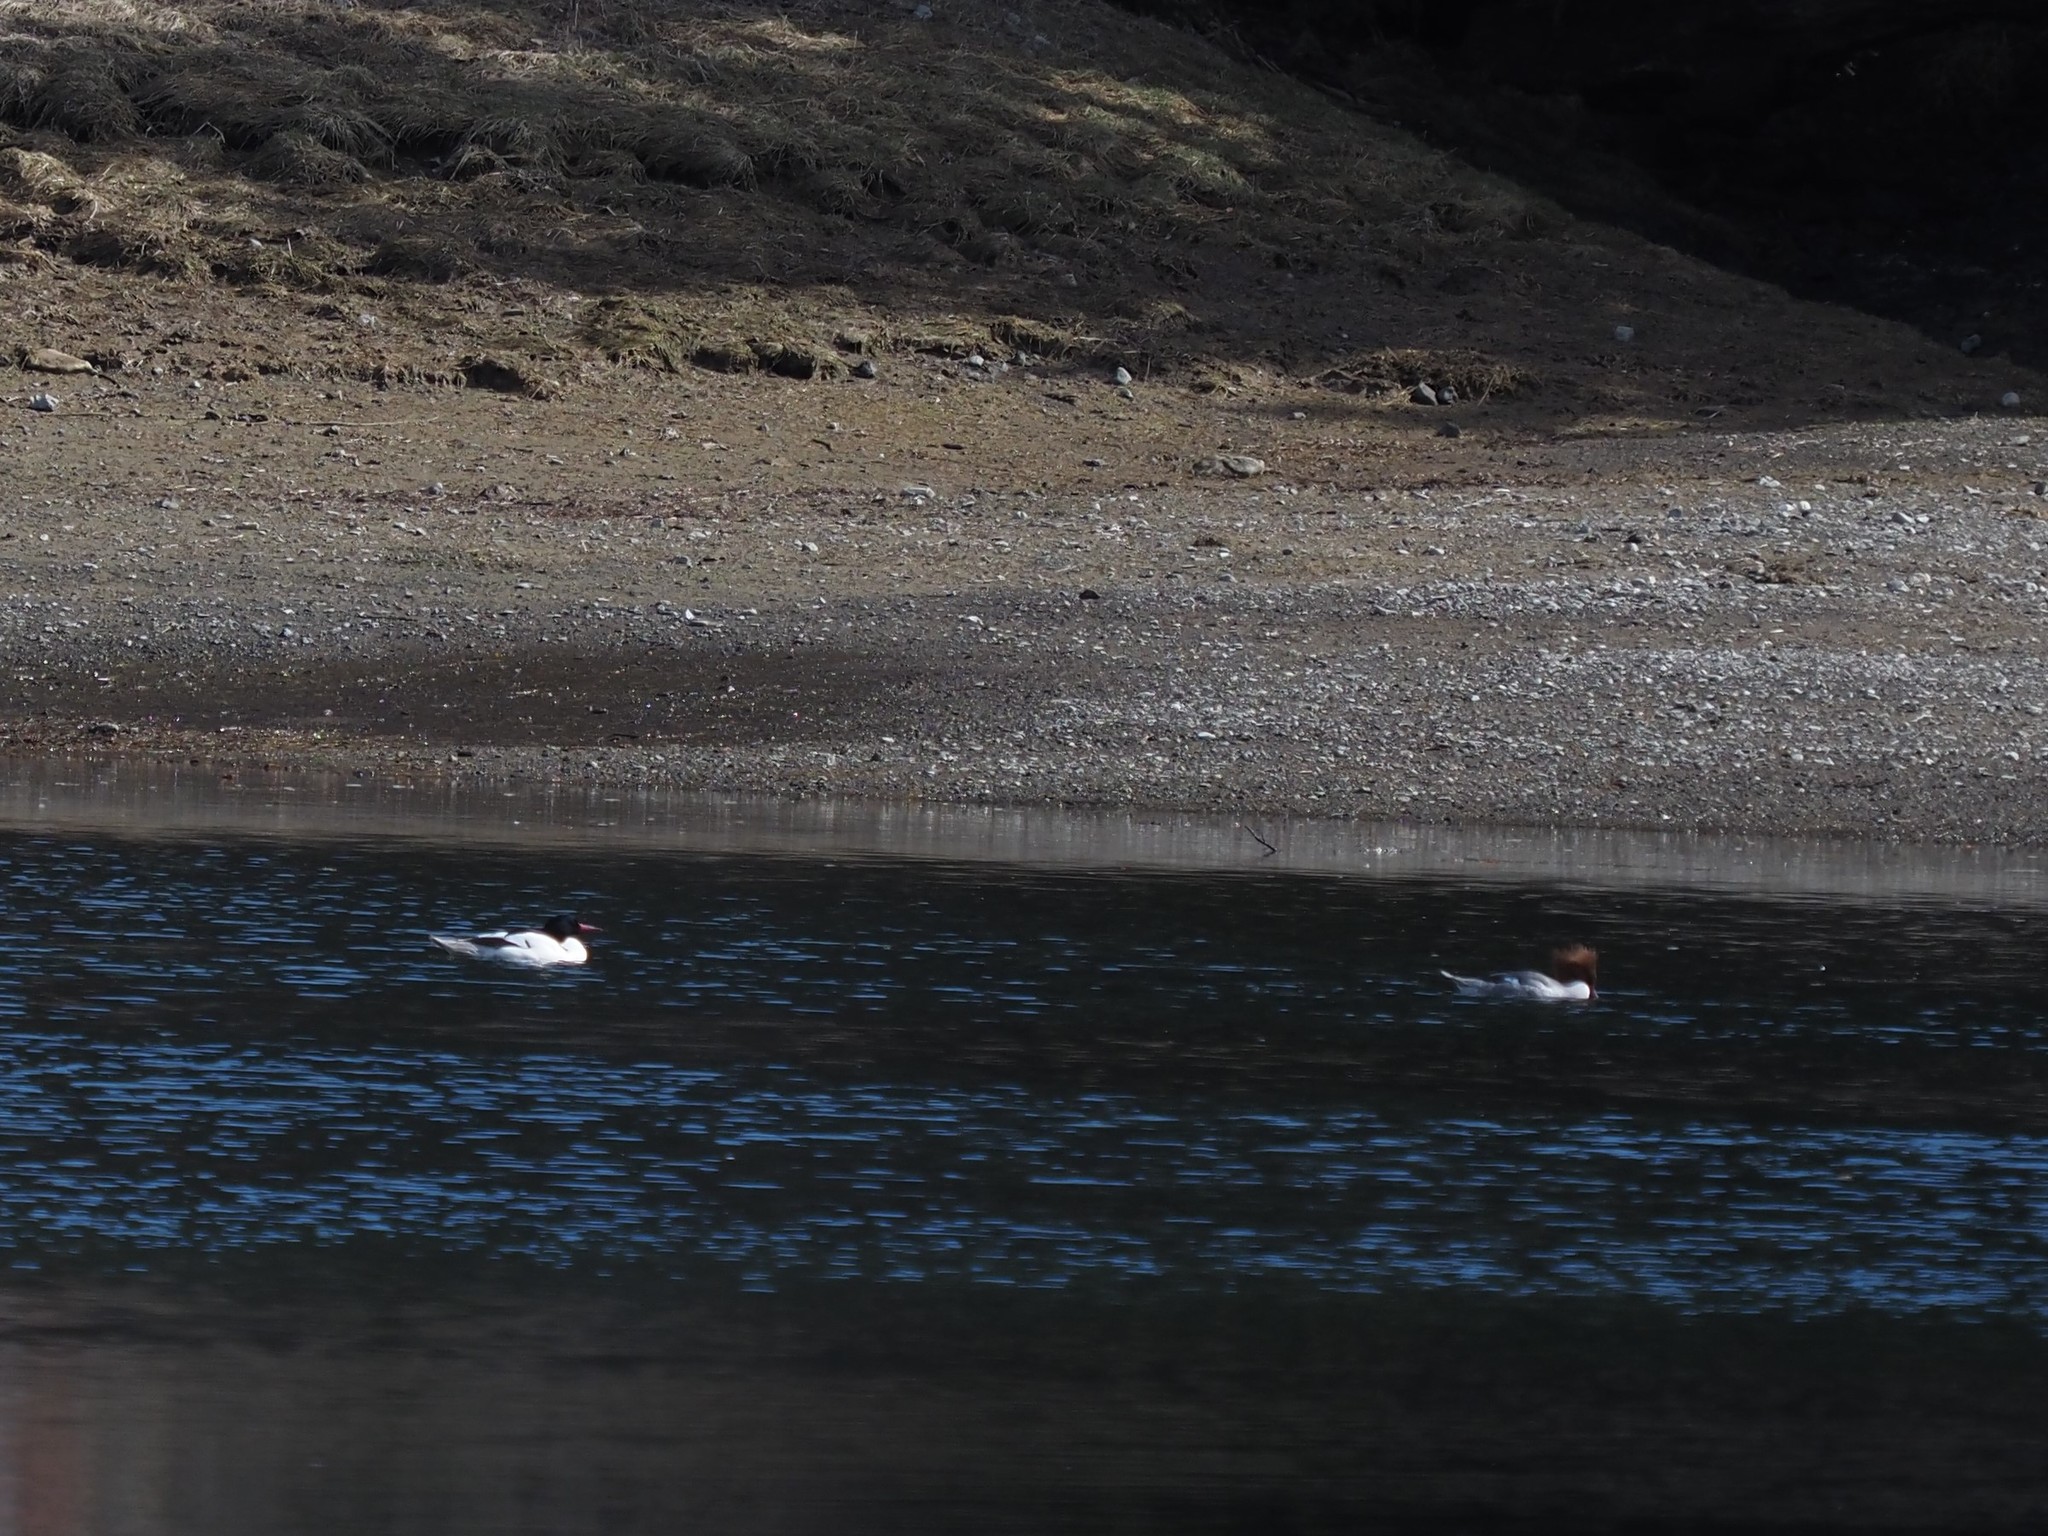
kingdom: Animalia
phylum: Chordata
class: Aves
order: Anseriformes
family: Anatidae
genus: Mergus
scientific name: Mergus merganser
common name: Common merganser
